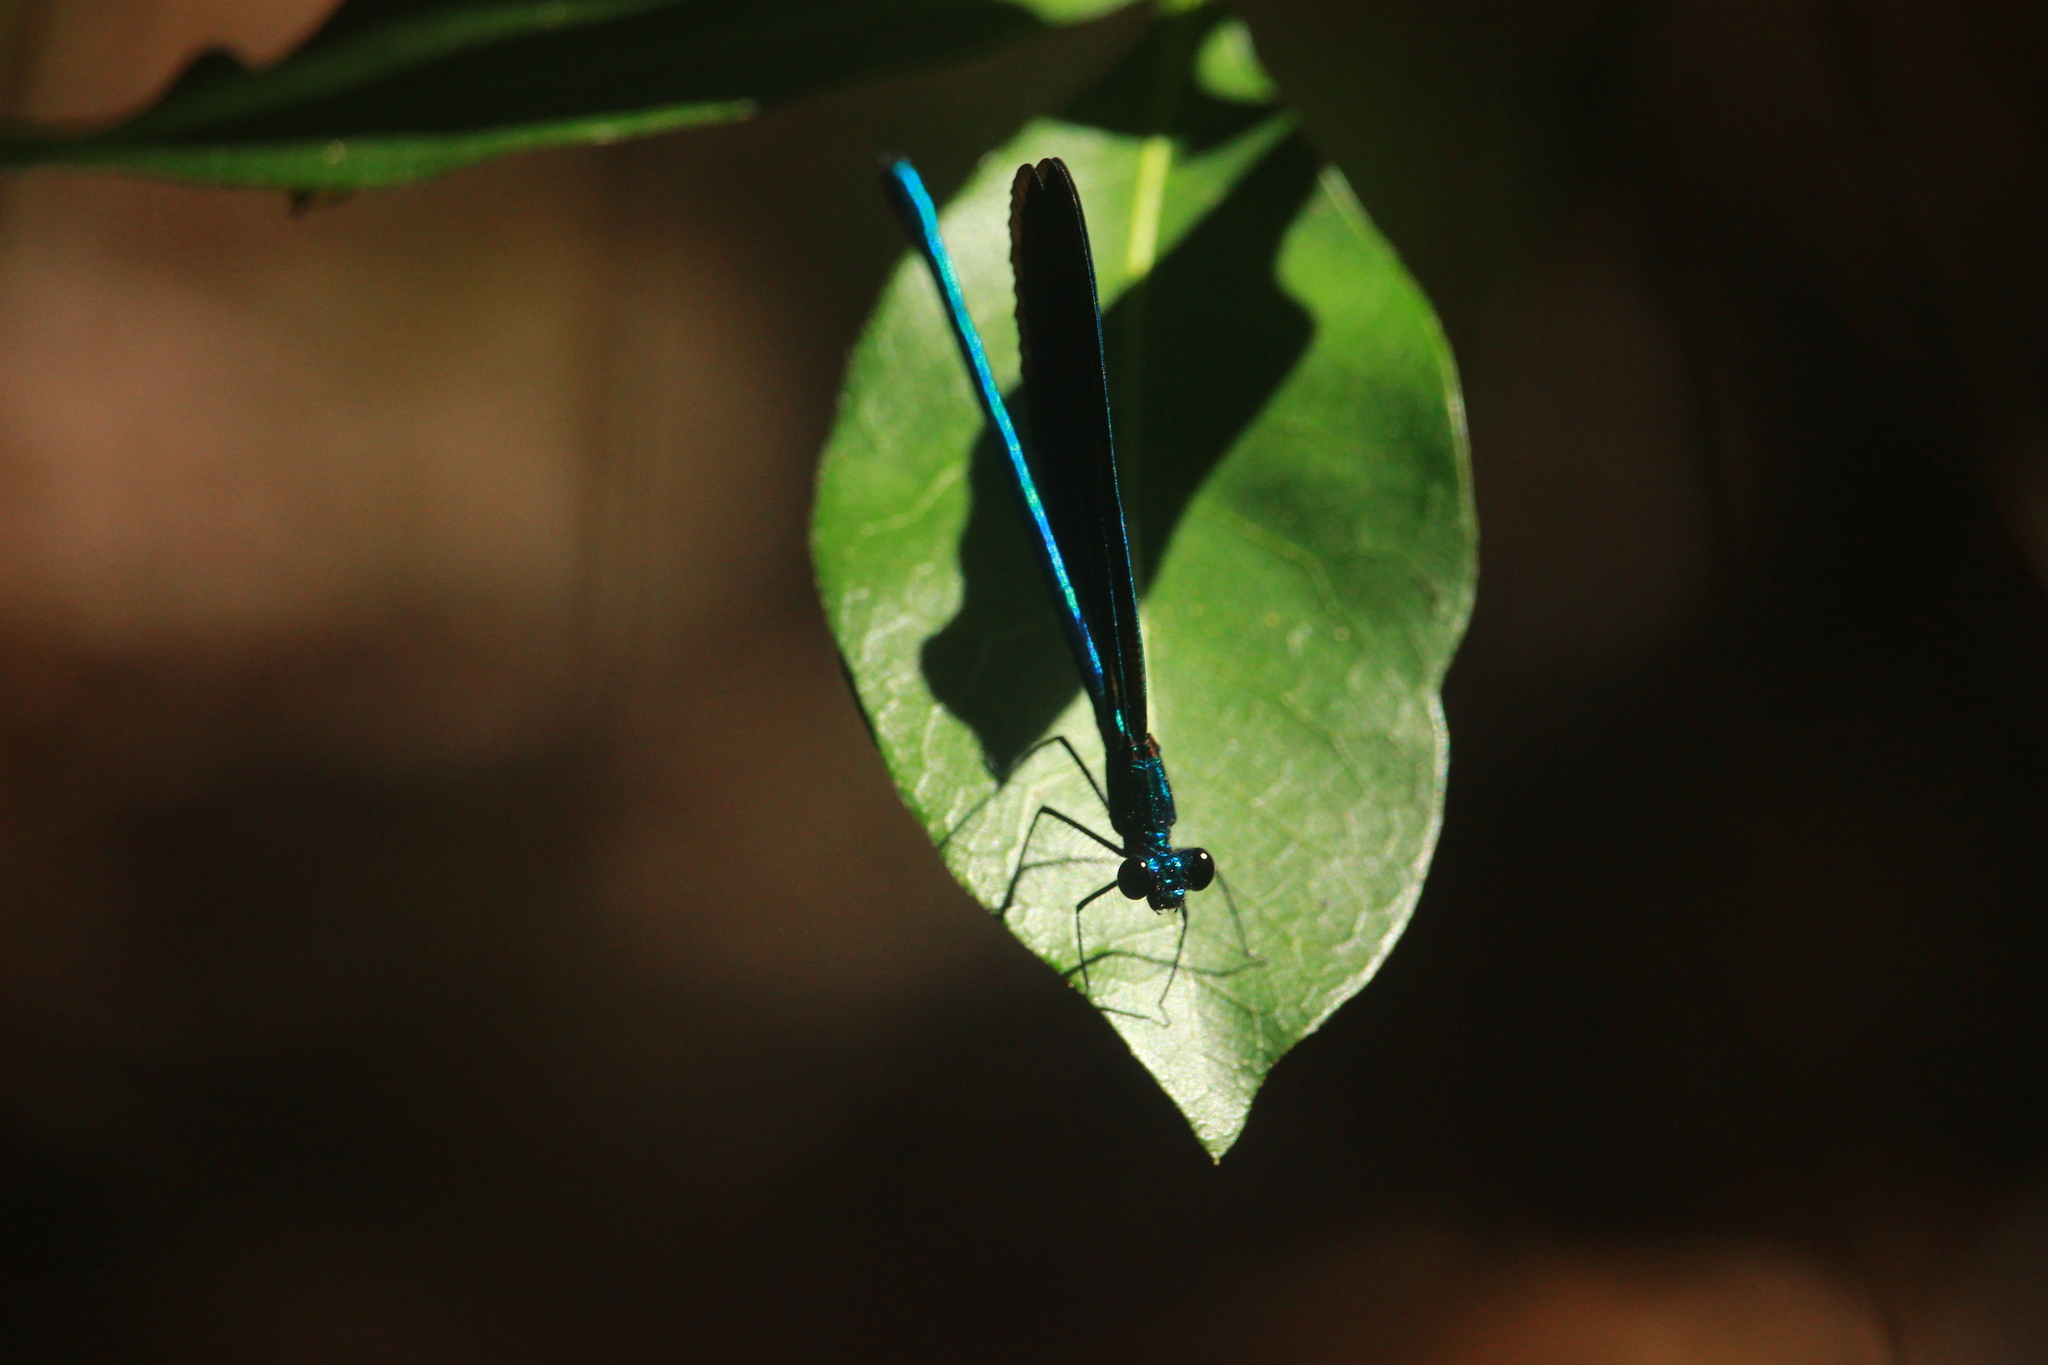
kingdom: Animalia
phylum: Arthropoda
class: Insecta
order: Odonata
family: Calopterygidae
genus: Calopteryx
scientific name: Calopteryx maculata
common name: Ebony jewelwing
